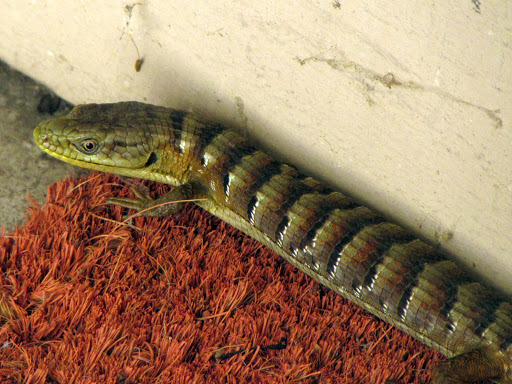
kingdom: Animalia
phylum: Chordata
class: Squamata
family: Anguidae
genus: Elgaria
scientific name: Elgaria multicarinata
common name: Southern alligator lizard
